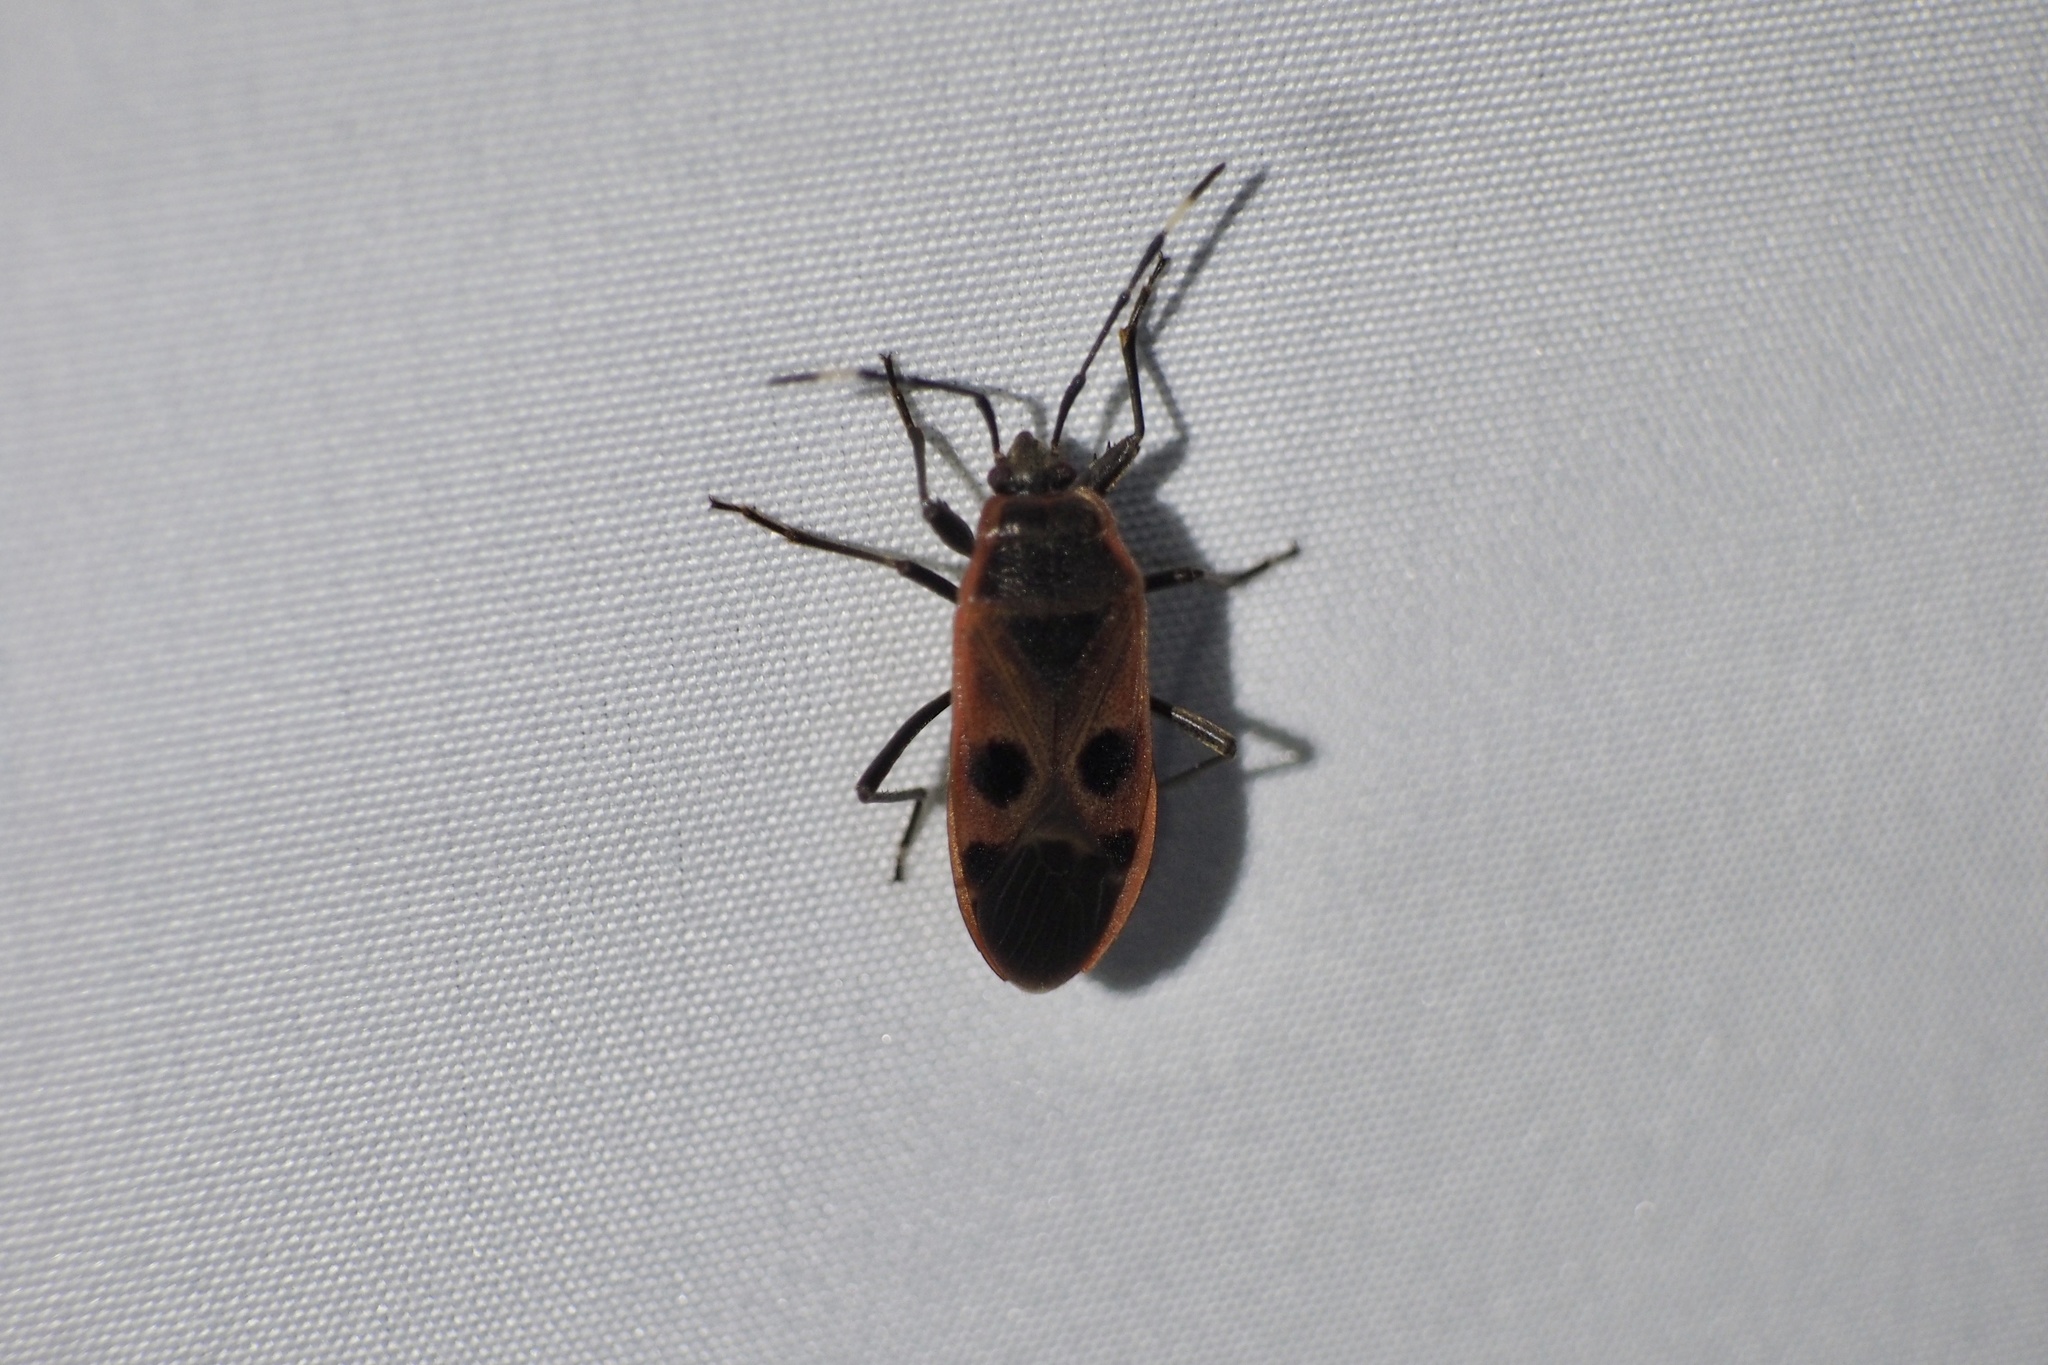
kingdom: Animalia
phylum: Arthropoda
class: Insecta
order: Hemiptera
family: Largidae
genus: Physopelta
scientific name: Physopelta parviceps
